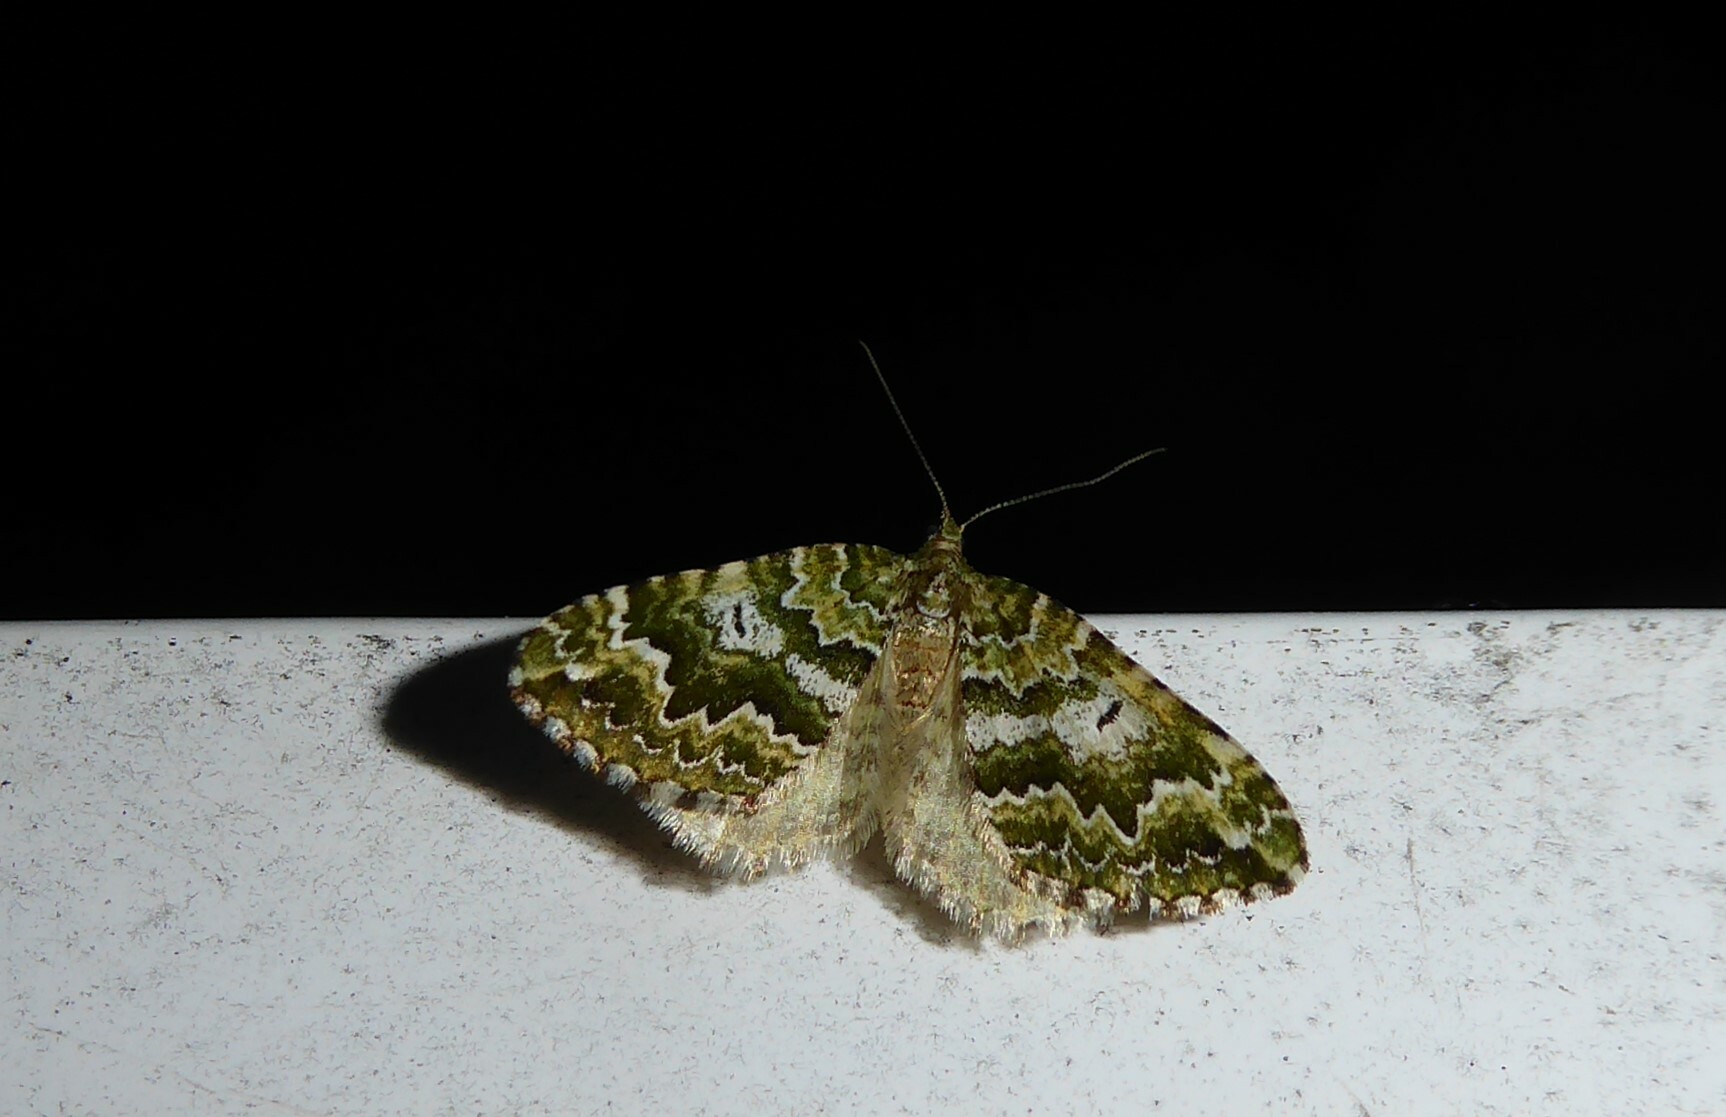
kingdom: Animalia
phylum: Arthropoda
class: Insecta
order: Lepidoptera
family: Geometridae
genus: Asaphodes
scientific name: Asaphodes beata
